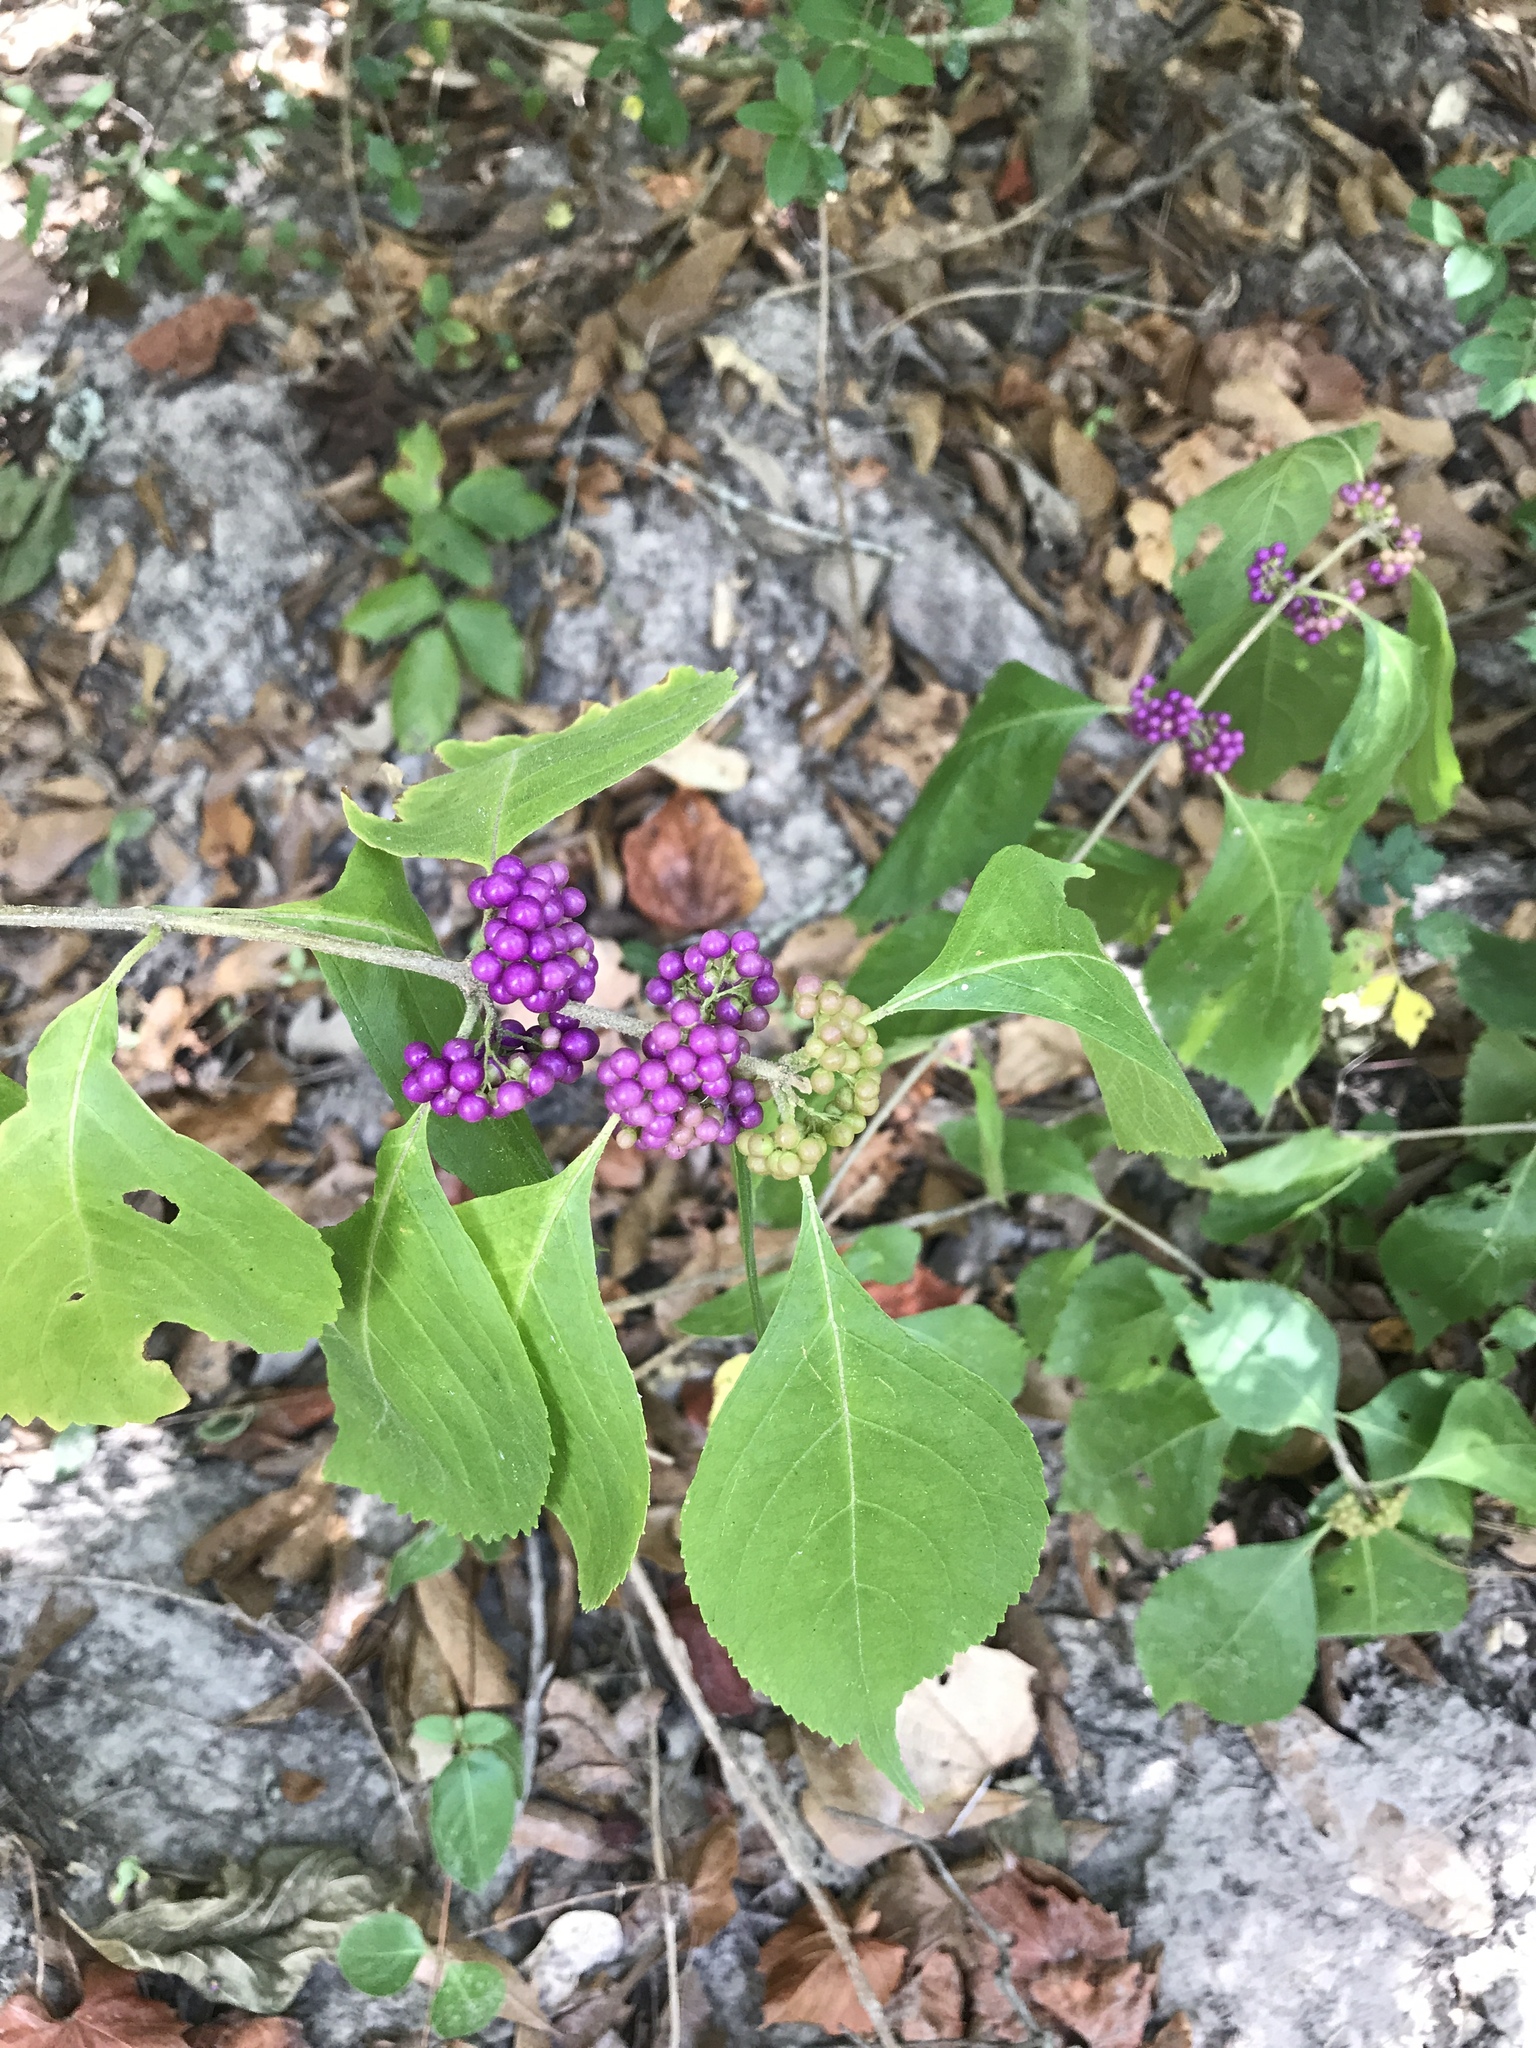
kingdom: Plantae
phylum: Tracheophyta
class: Magnoliopsida
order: Lamiales
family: Lamiaceae
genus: Callicarpa
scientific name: Callicarpa americana
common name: American beautyberry
